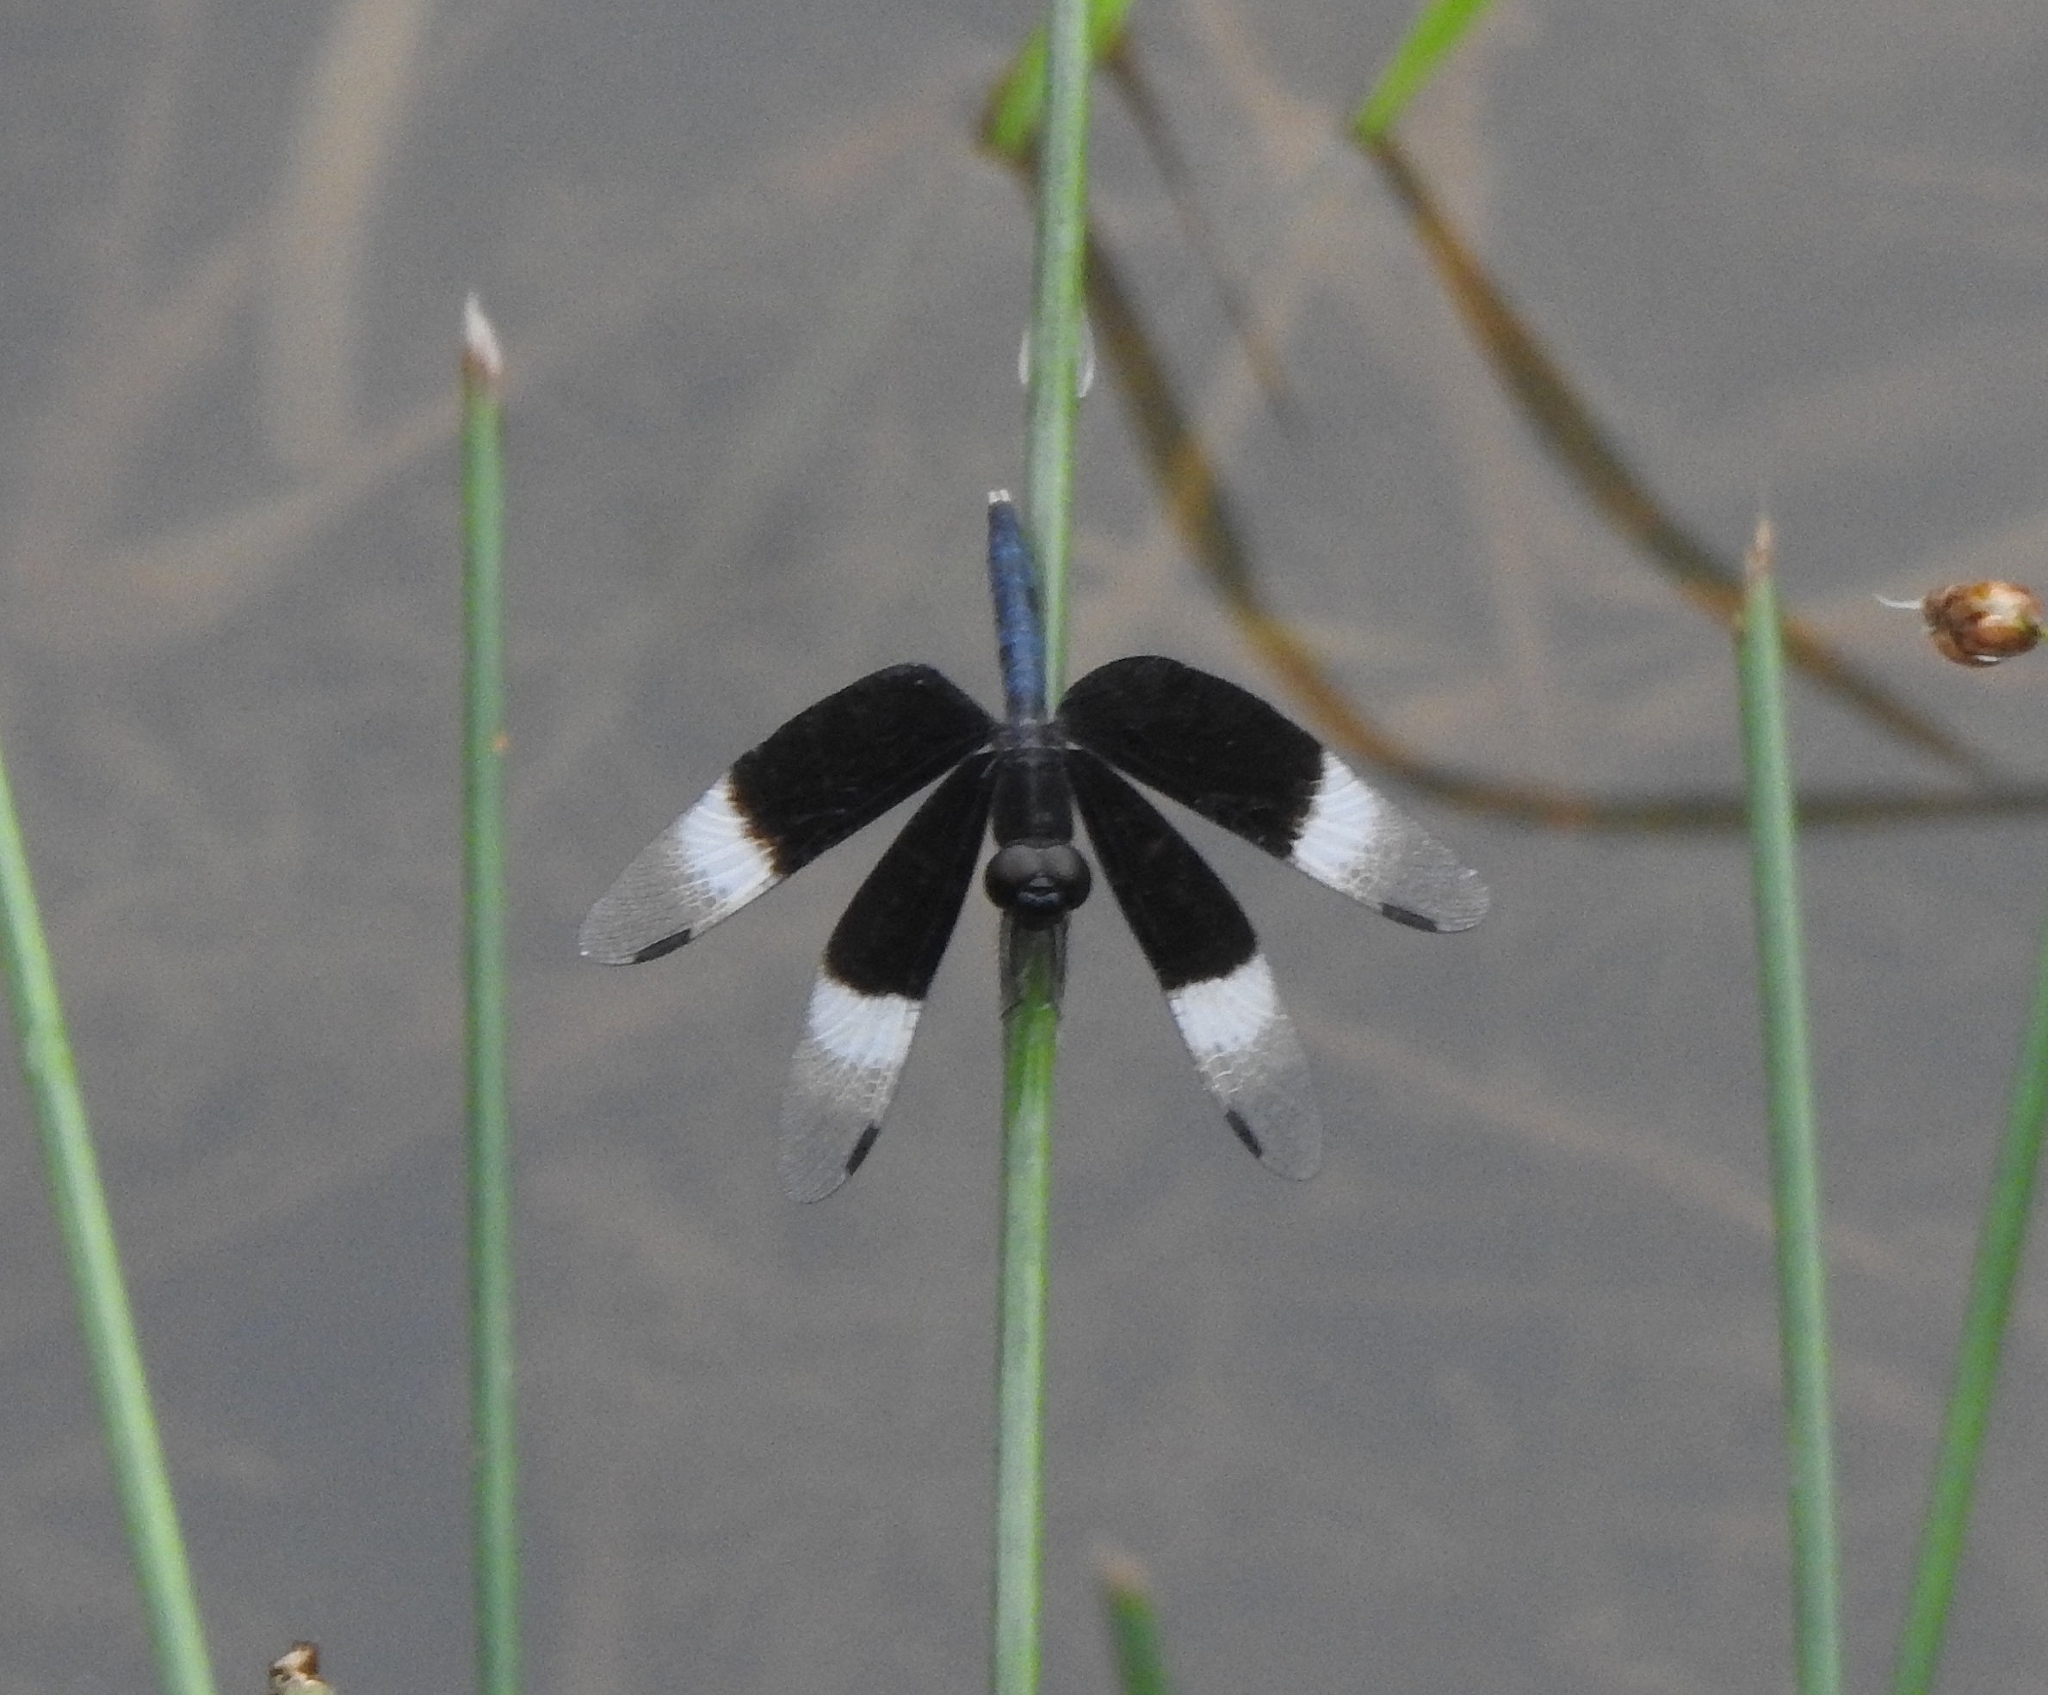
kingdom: Animalia
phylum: Arthropoda
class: Insecta
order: Odonata
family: Libellulidae
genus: Neurothemis
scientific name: Neurothemis tullia
